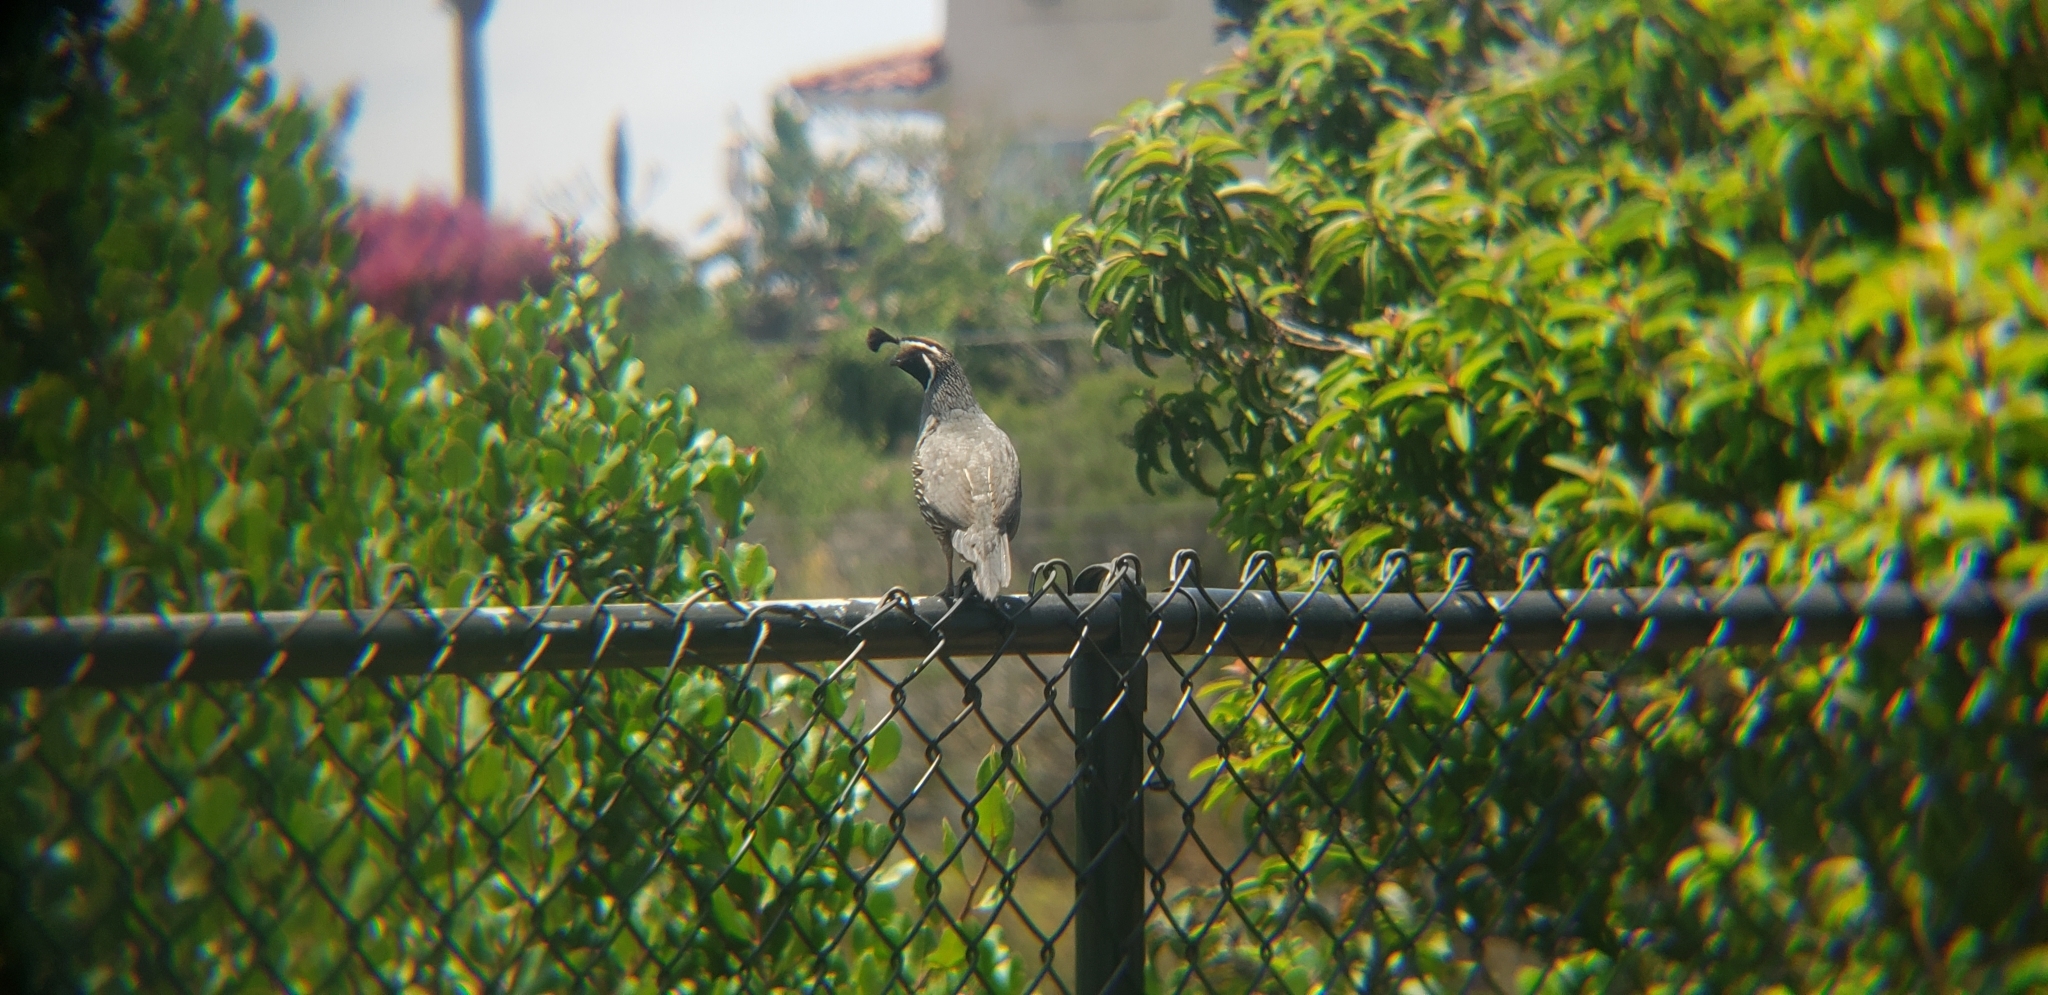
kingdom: Animalia
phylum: Chordata
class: Aves
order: Galliformes
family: Odontophoridae
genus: Callipepla
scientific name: Callipepla californica
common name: California quail
